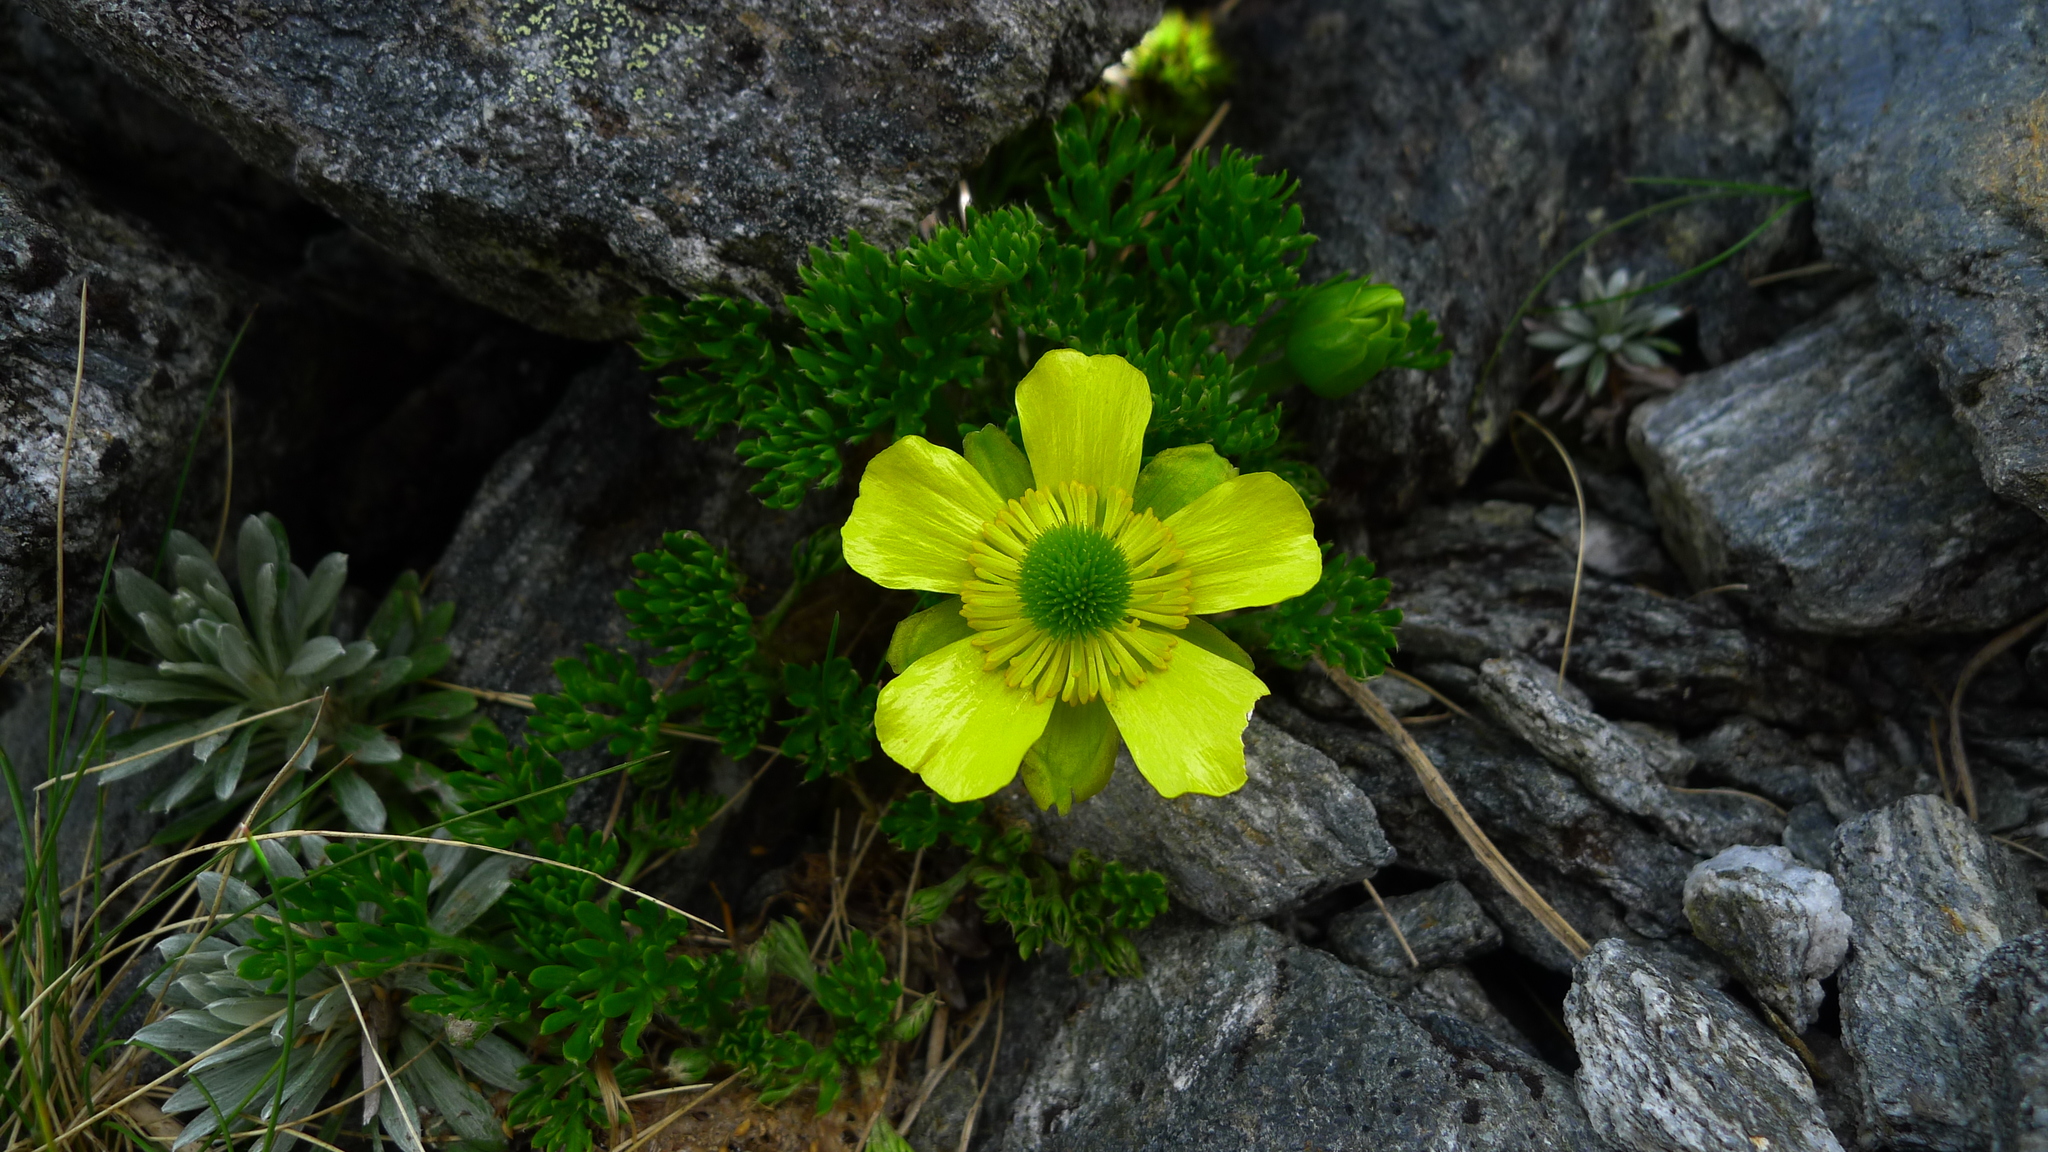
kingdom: Plantae
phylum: Tracheophyta
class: Magnoliopsida
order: Ranunculales
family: Ranunculaceae
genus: Ranunculus
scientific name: Ranunculus sericophyllus
